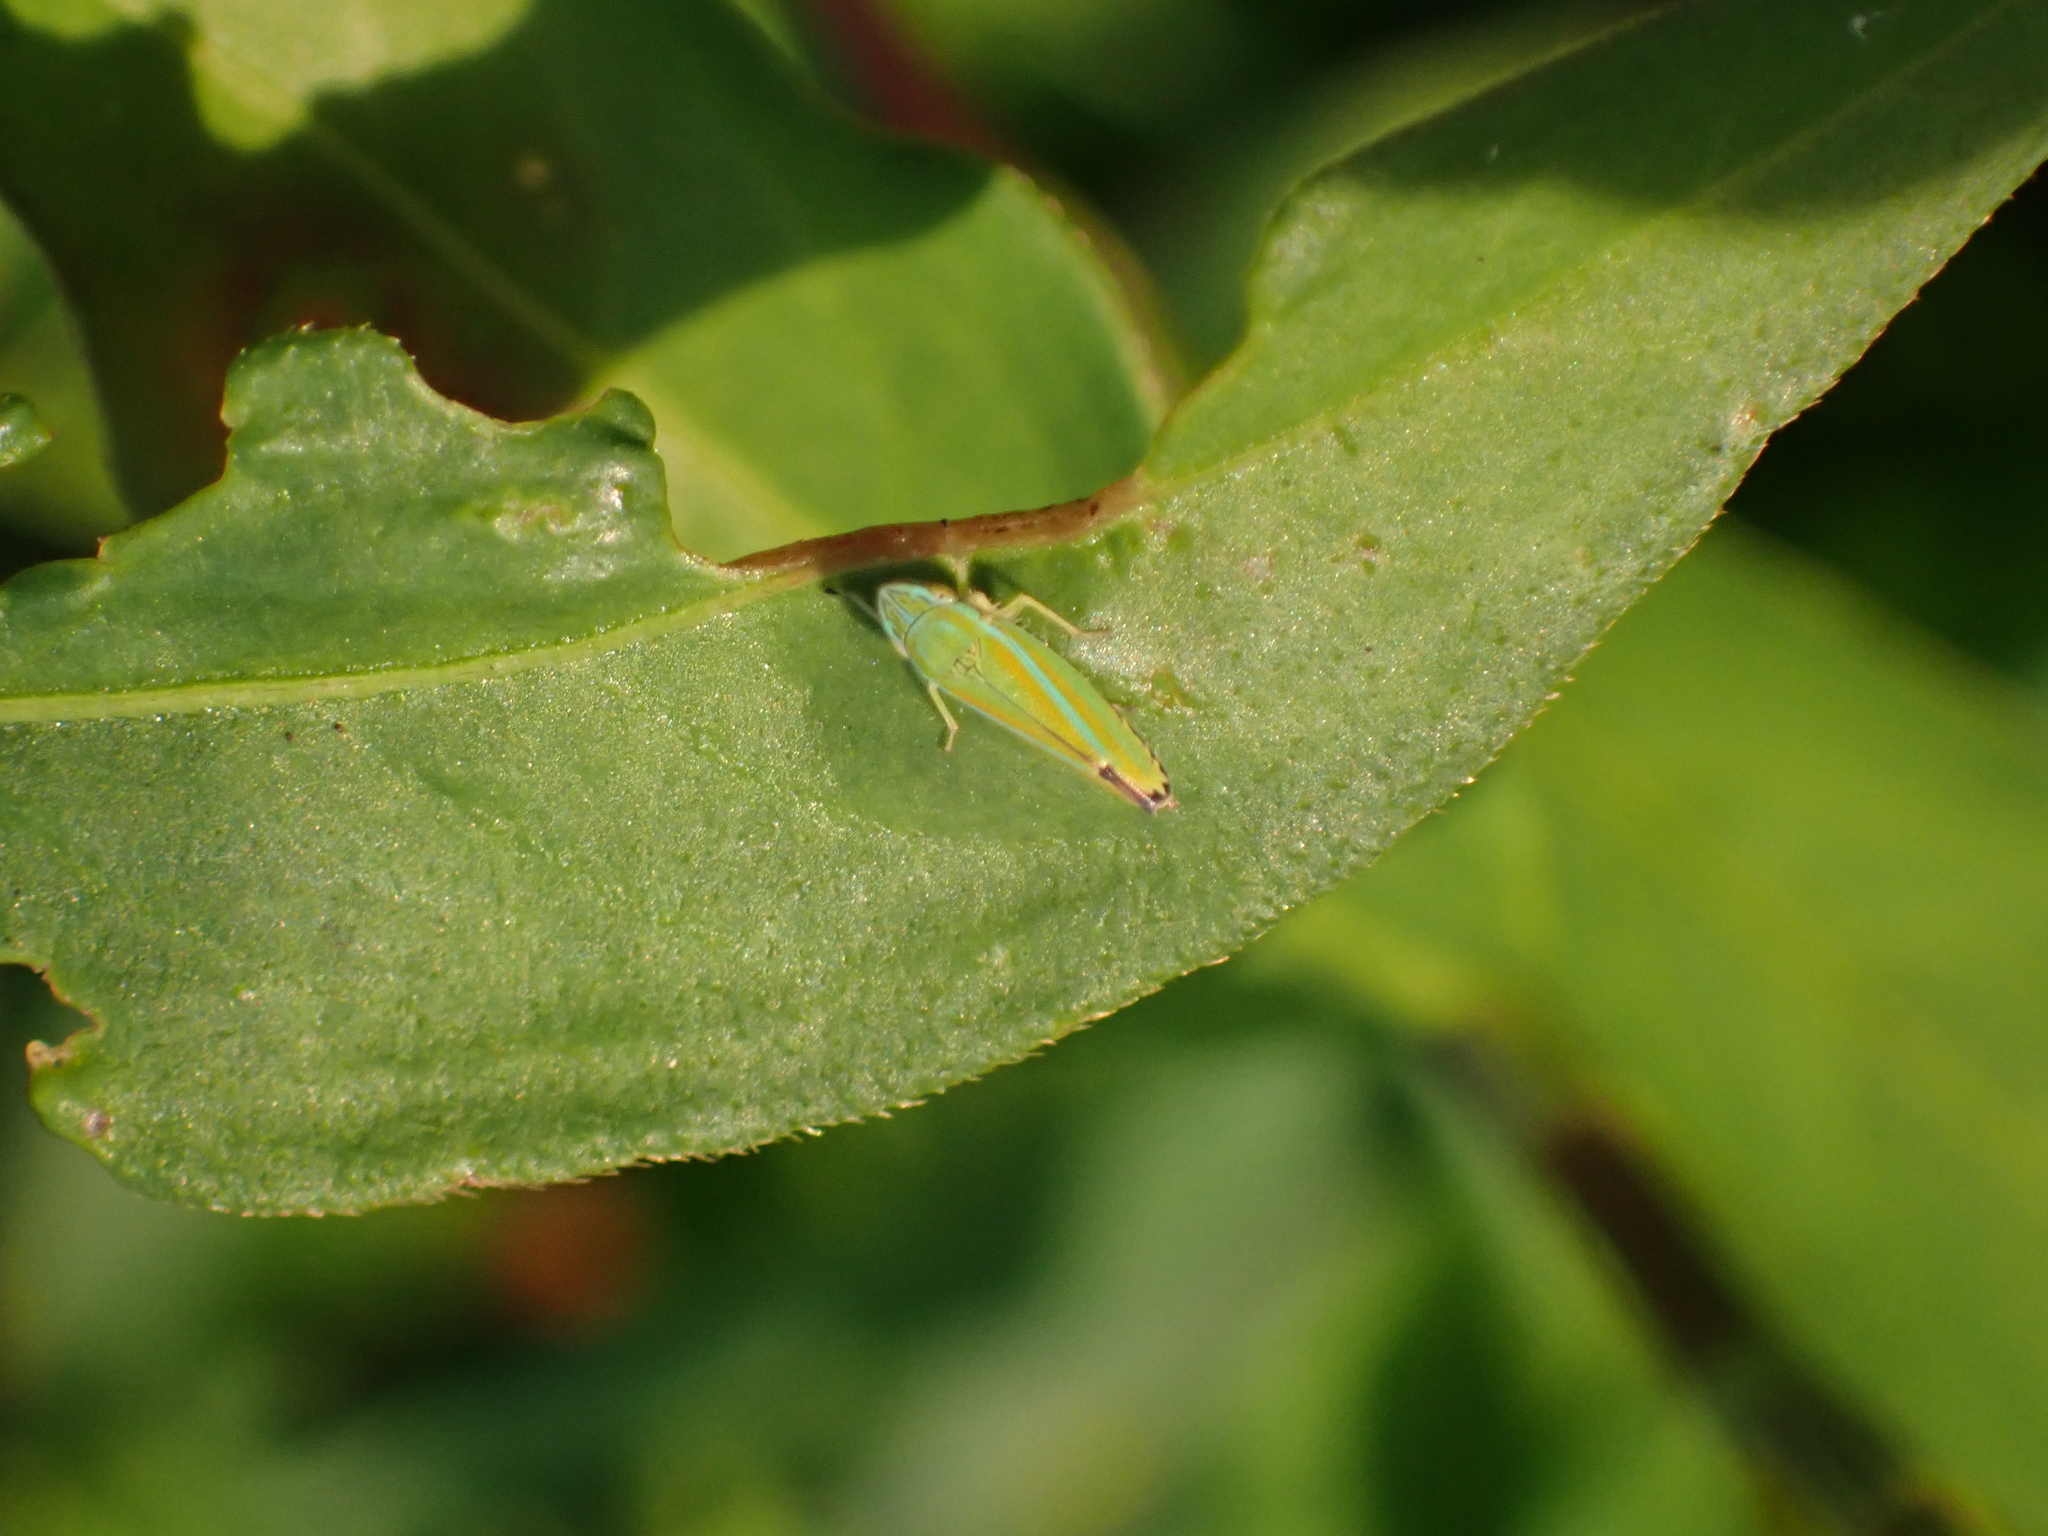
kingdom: Animalia
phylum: Arthropoda
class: Insecta
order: Hemiptera
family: Cicadellidae
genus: Graphocephala
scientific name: Graphocephala versuta
